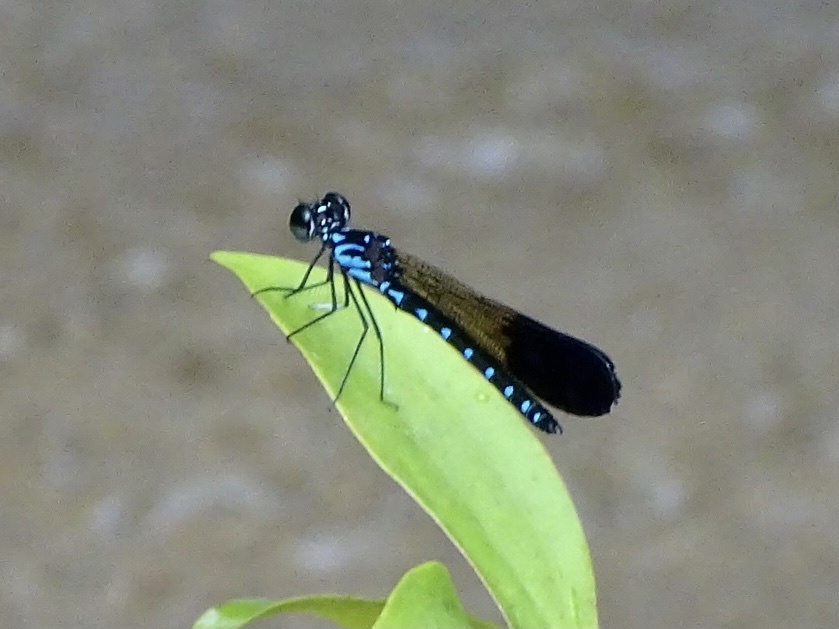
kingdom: Animalia
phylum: Arthropoda
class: Insecta
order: Odonata
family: Chlorocyphidae
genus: Heliocypha
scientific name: Heliocypha perforata
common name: Common blue jewel
